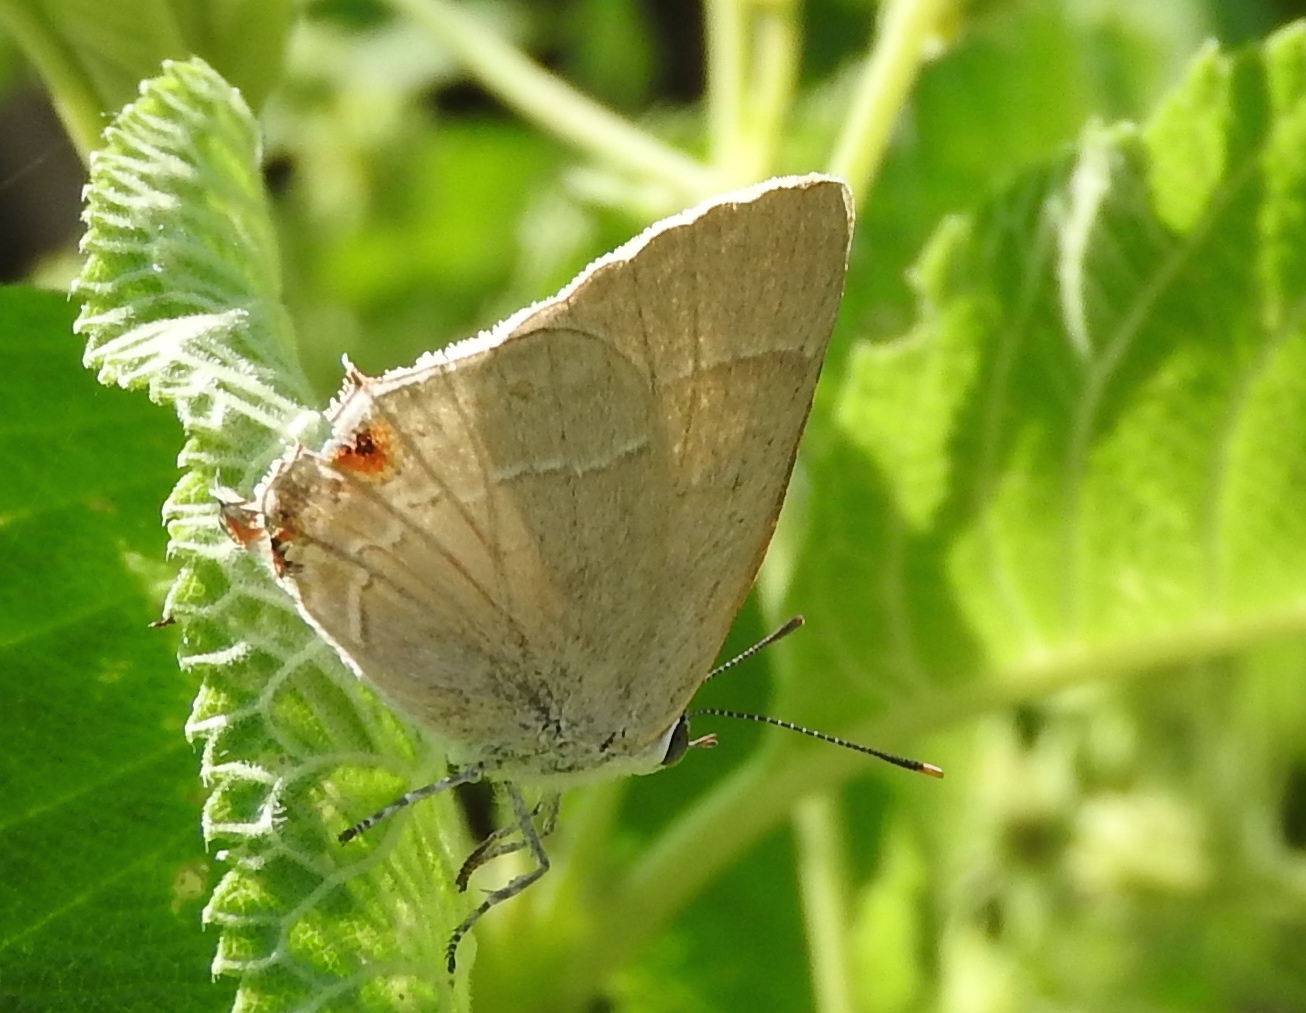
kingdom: Animalia
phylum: Arthropoda
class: Insecta
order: Lepidoptera
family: Lycaenidae
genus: Thecla
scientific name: Thecla marius
